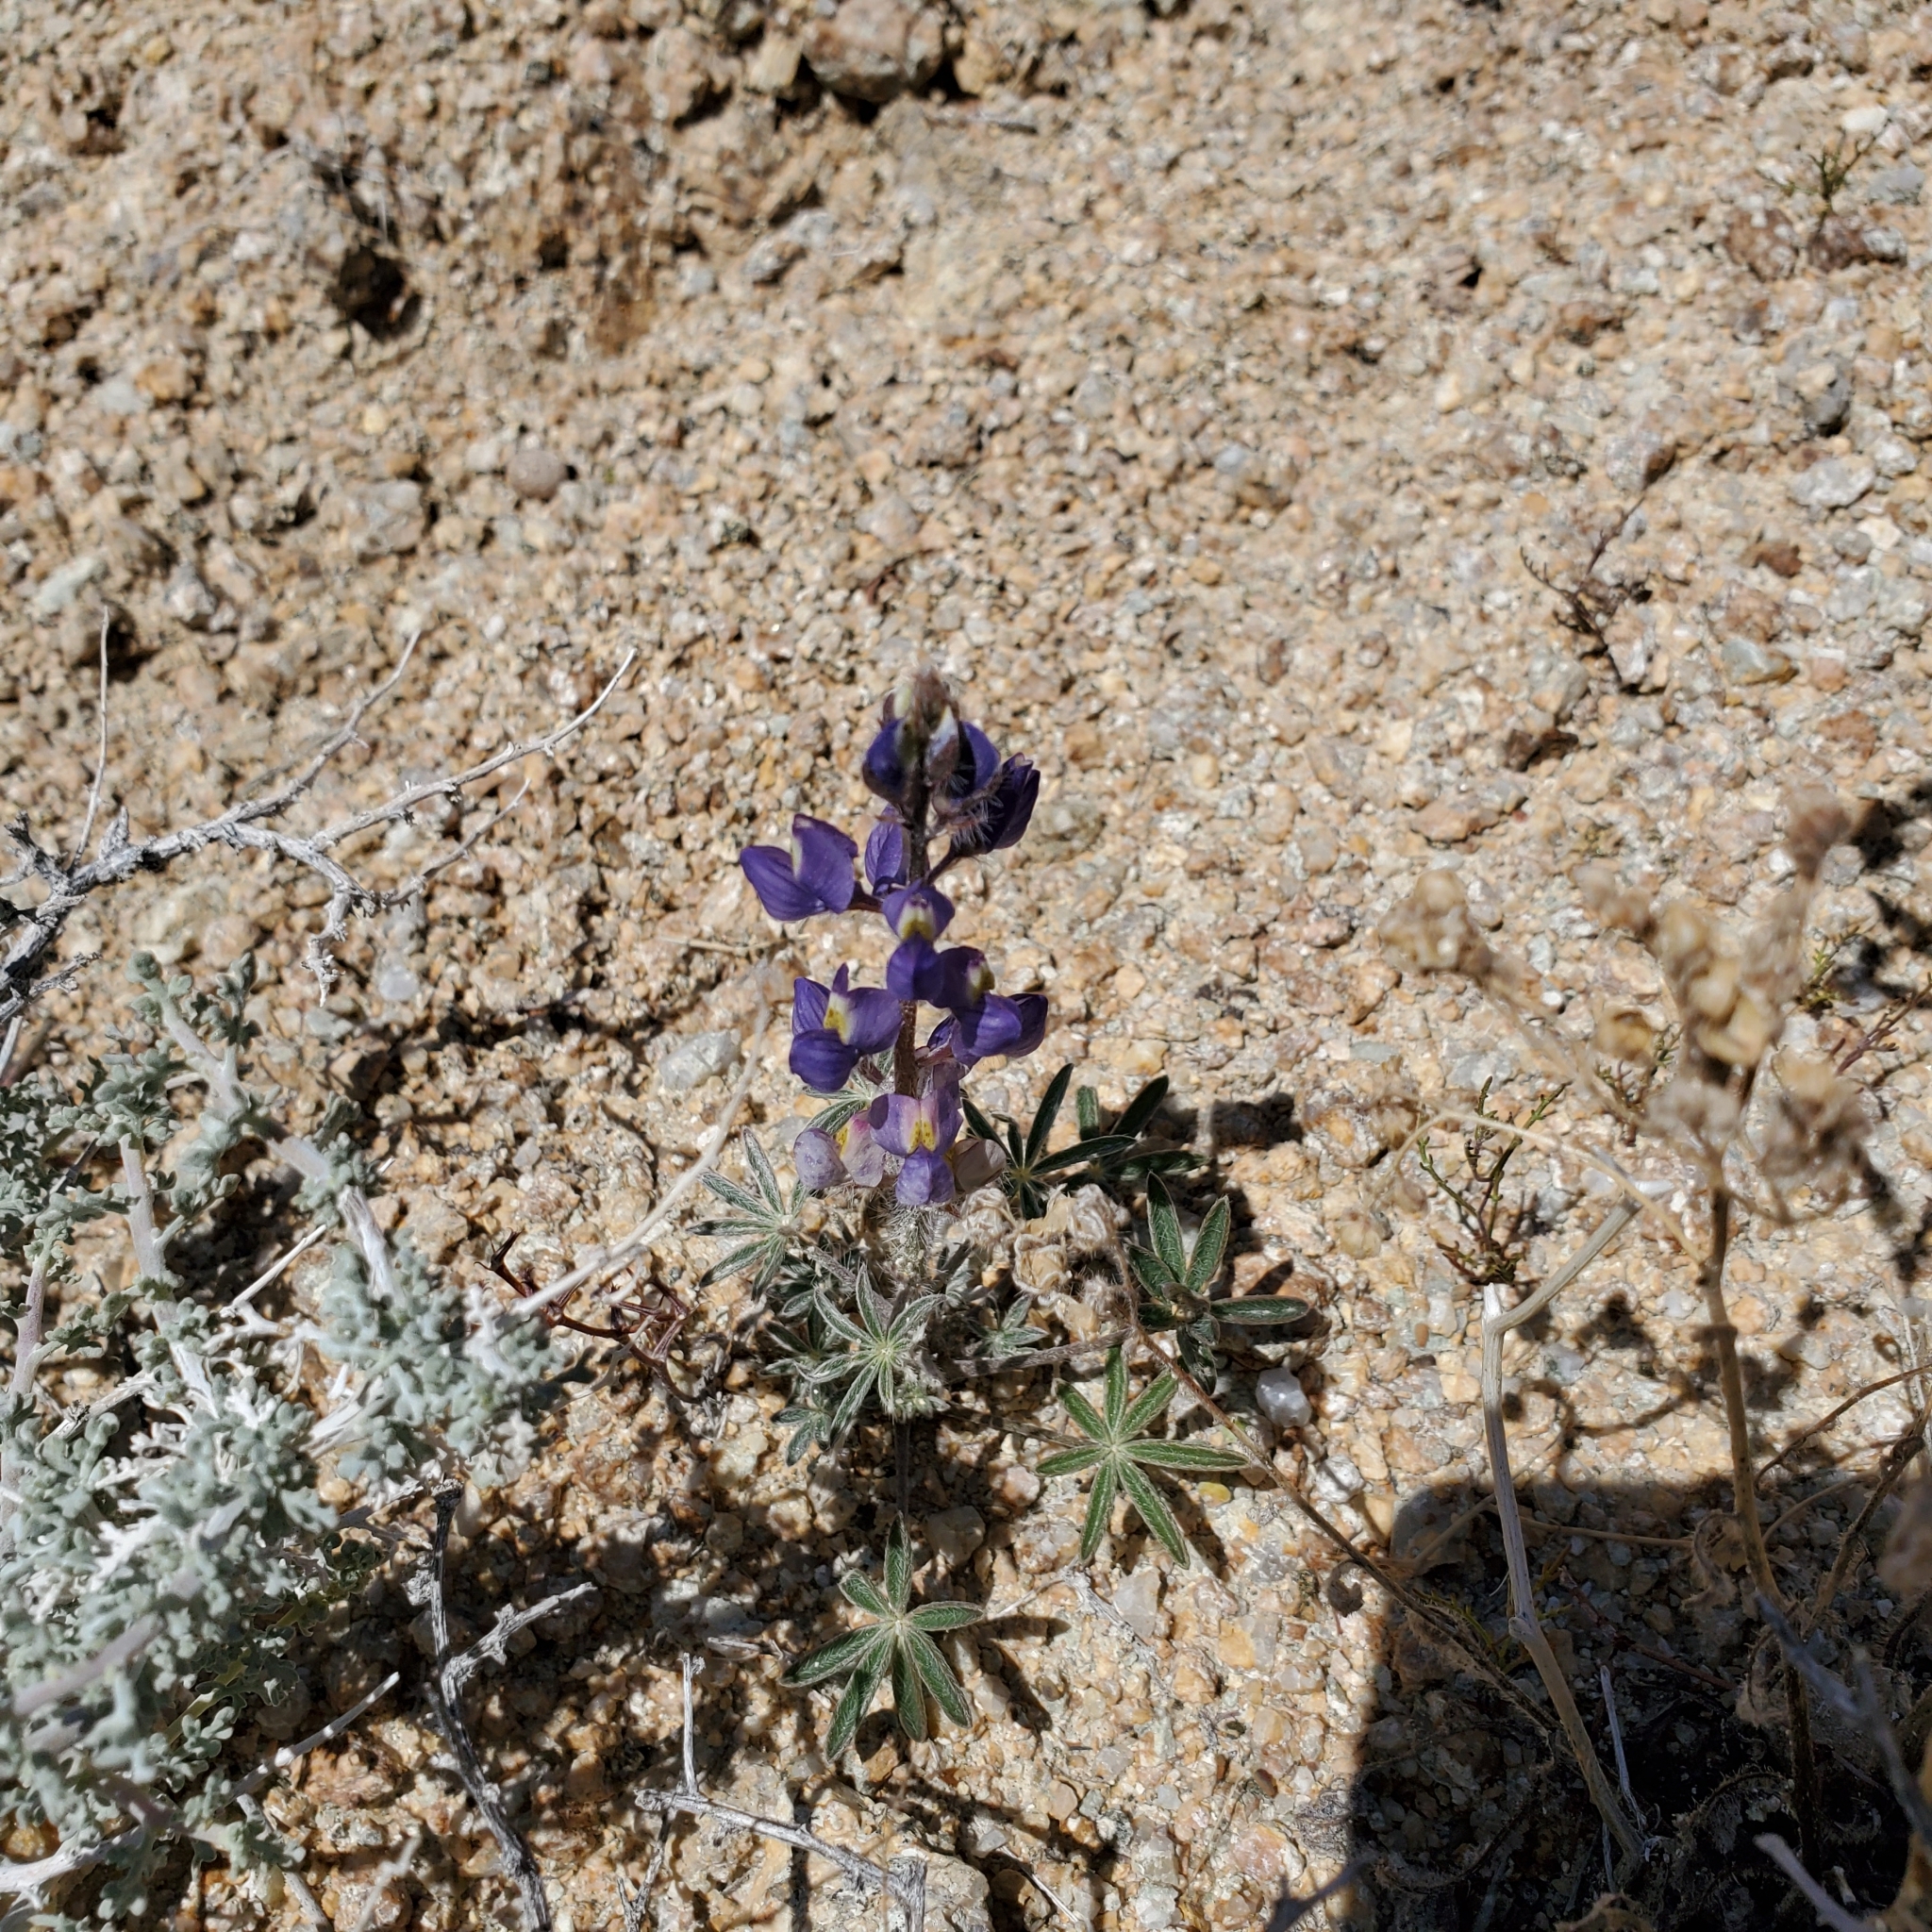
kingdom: Plantae
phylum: Tracheophyta
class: Magnoliopsida
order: Fabales
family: Fabaceae
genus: Lupinus
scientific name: Lupinus sparsiflorus
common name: Coulter's lupine
